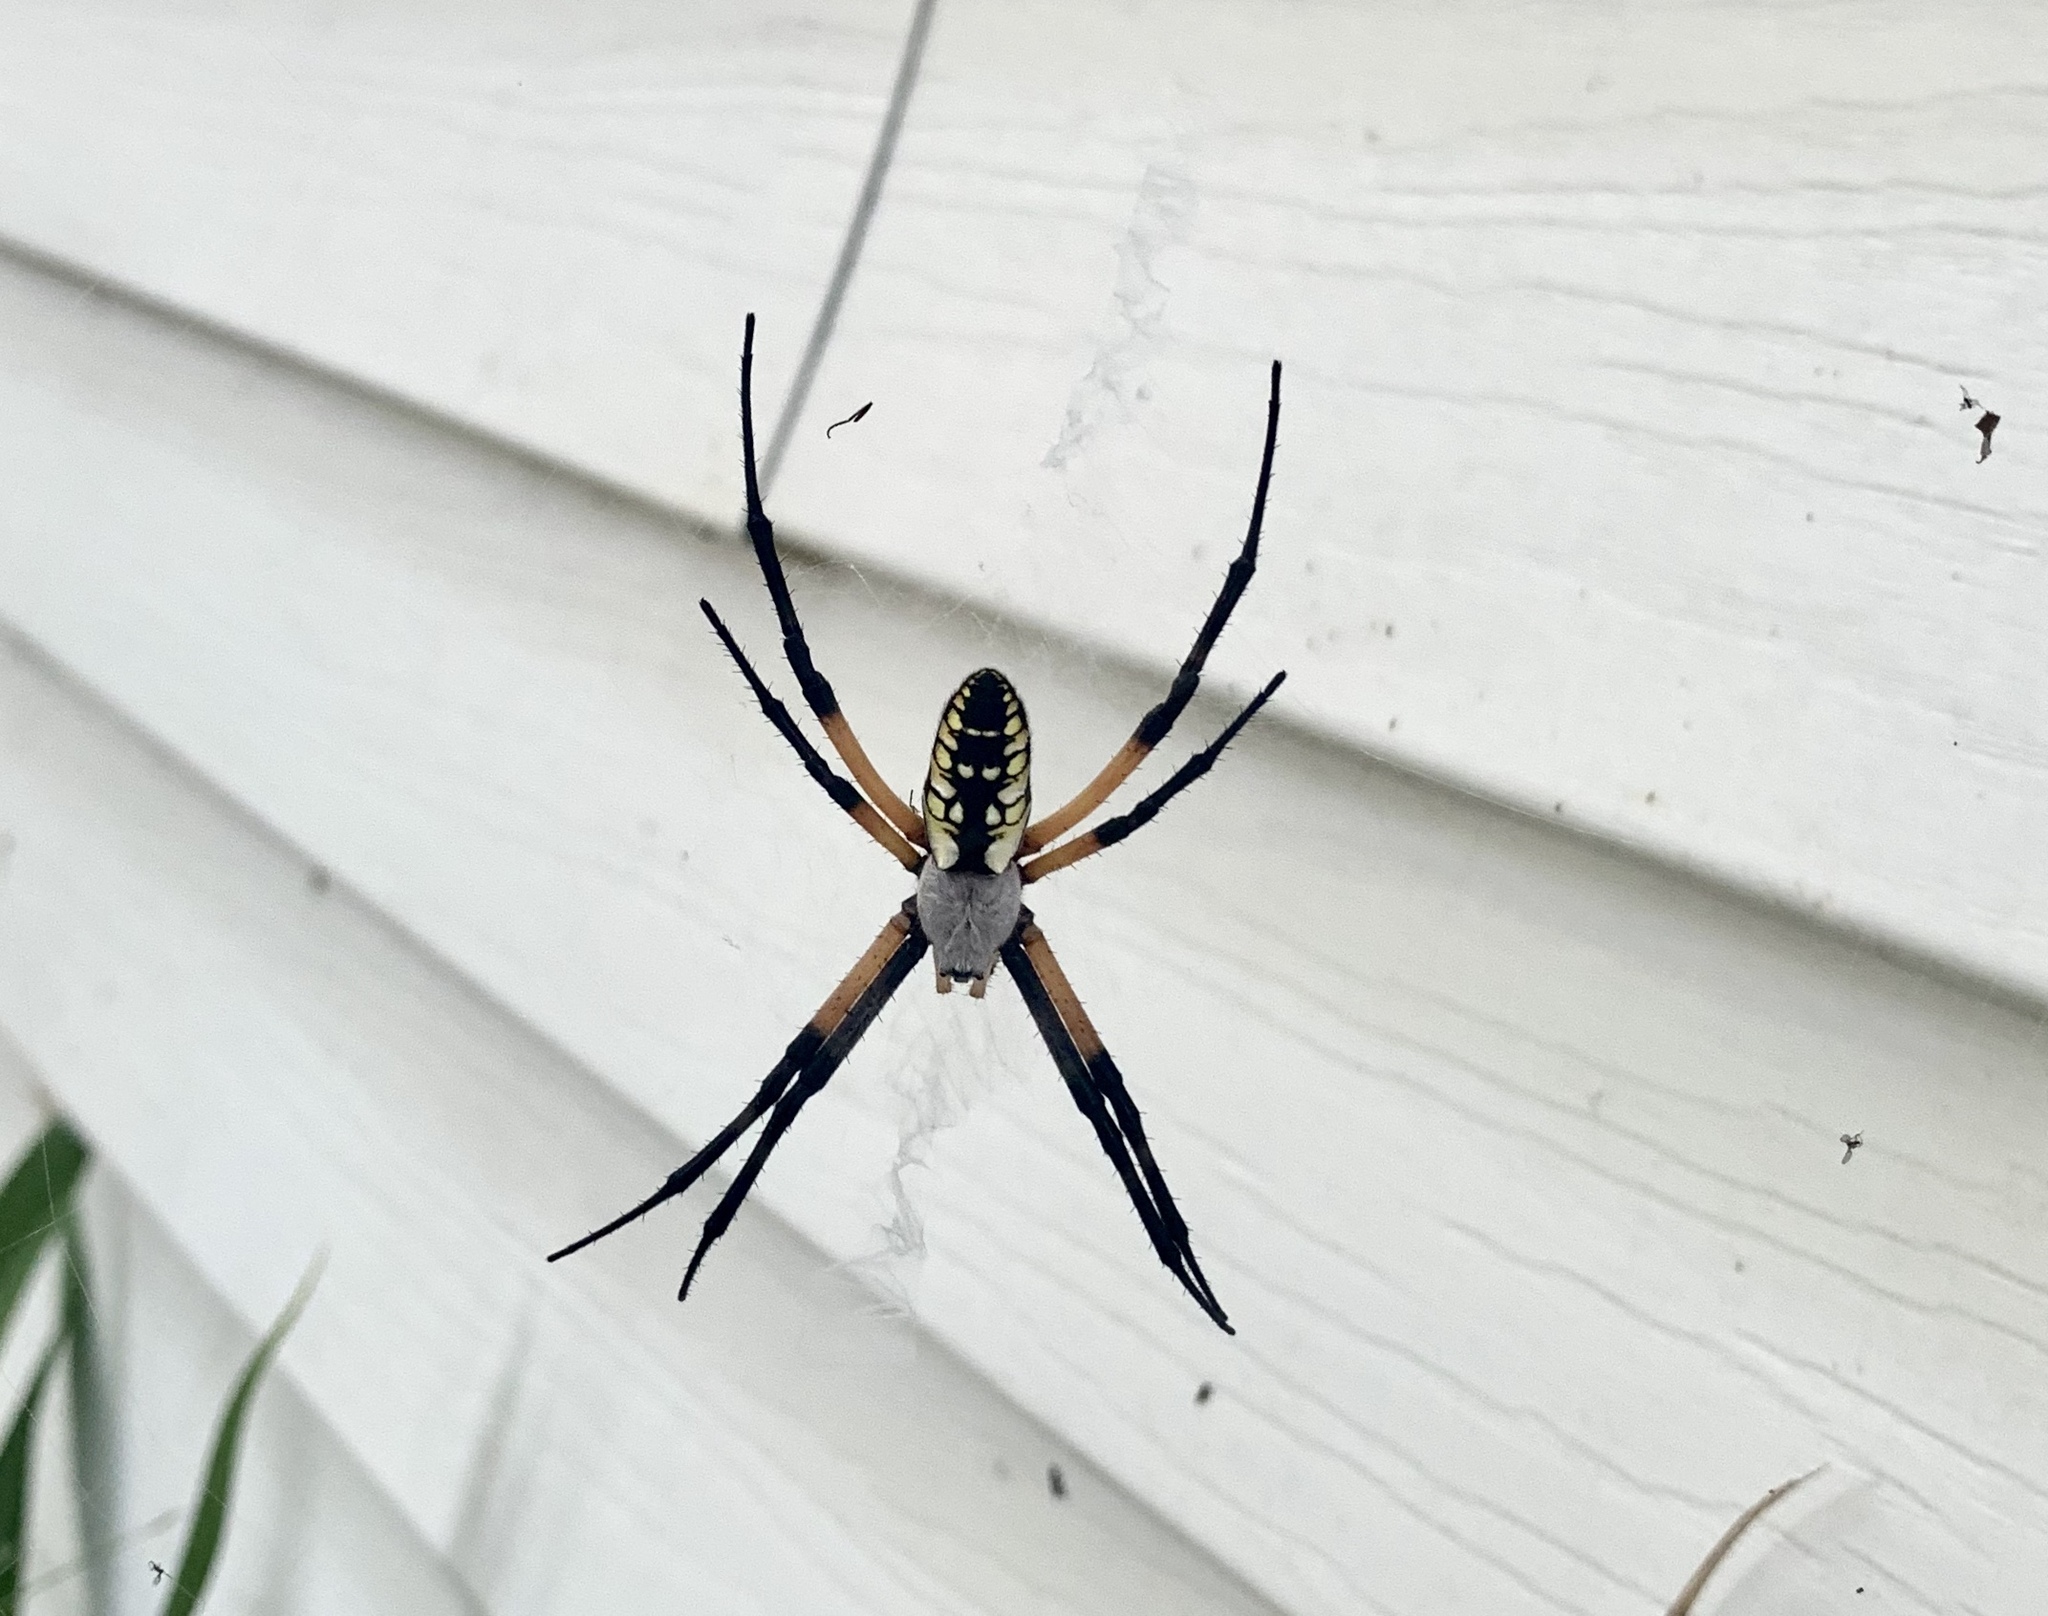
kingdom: Animalia
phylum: Arthropoda
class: Arachnida
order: Araneae
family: Araneidae
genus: Argiope
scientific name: Argiope aurantia
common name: Orb weavers
